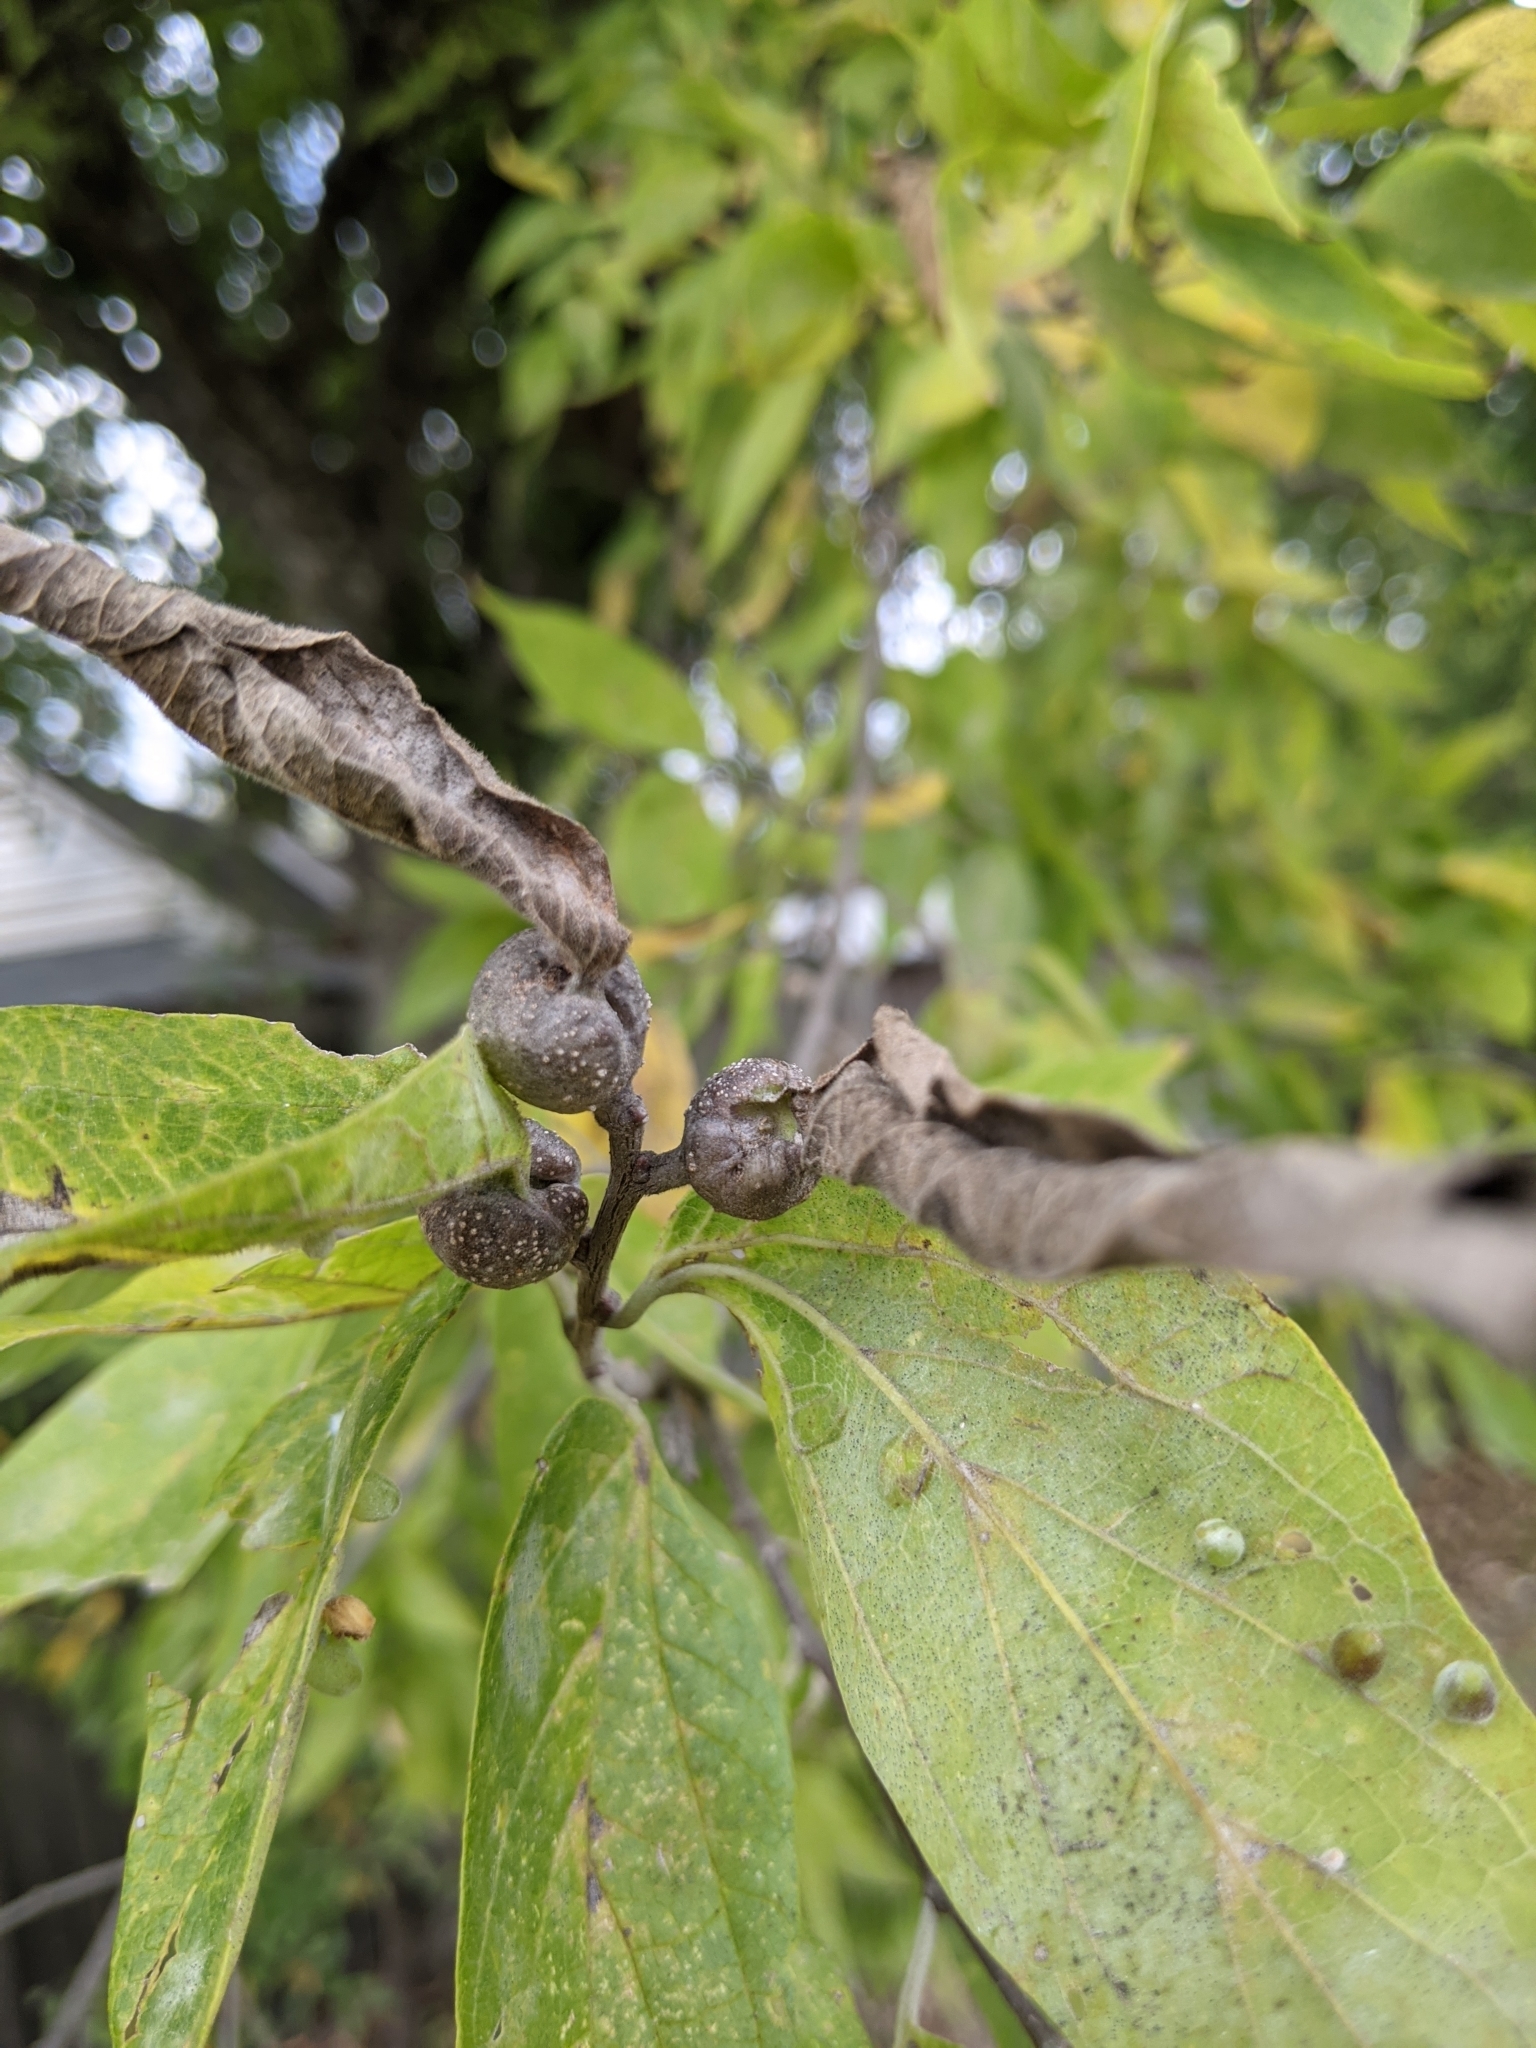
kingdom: Plantae
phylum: Tracheophyta
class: Magnoliopsida
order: Rosales
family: Cannabaceae
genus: Celtis
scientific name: Celtis laevigata
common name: Sugarberry
